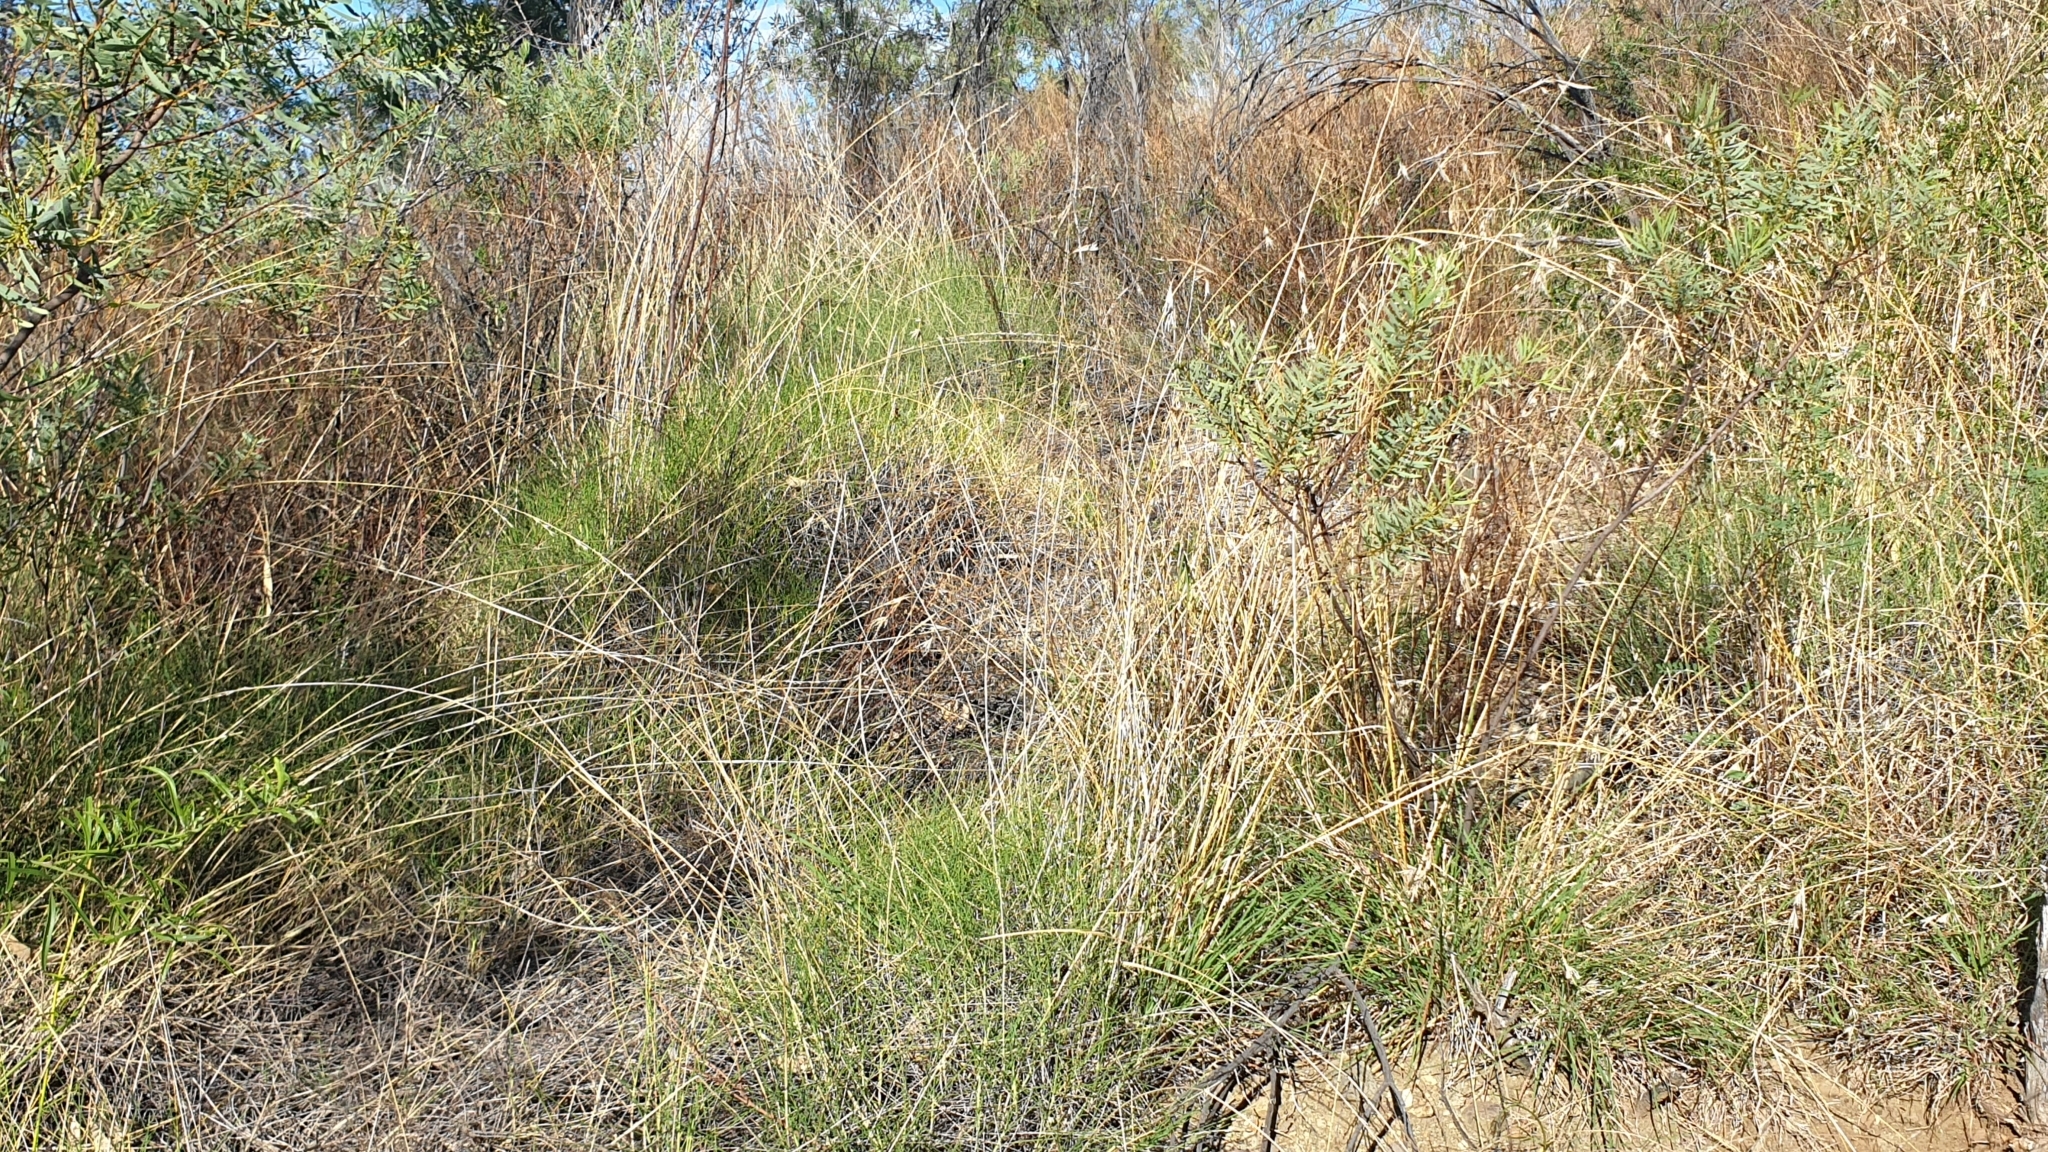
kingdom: Plantae
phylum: Tracheophyta
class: Liliopsida
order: Poales
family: Poaceae
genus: Triodia
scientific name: Triodia scariosa
